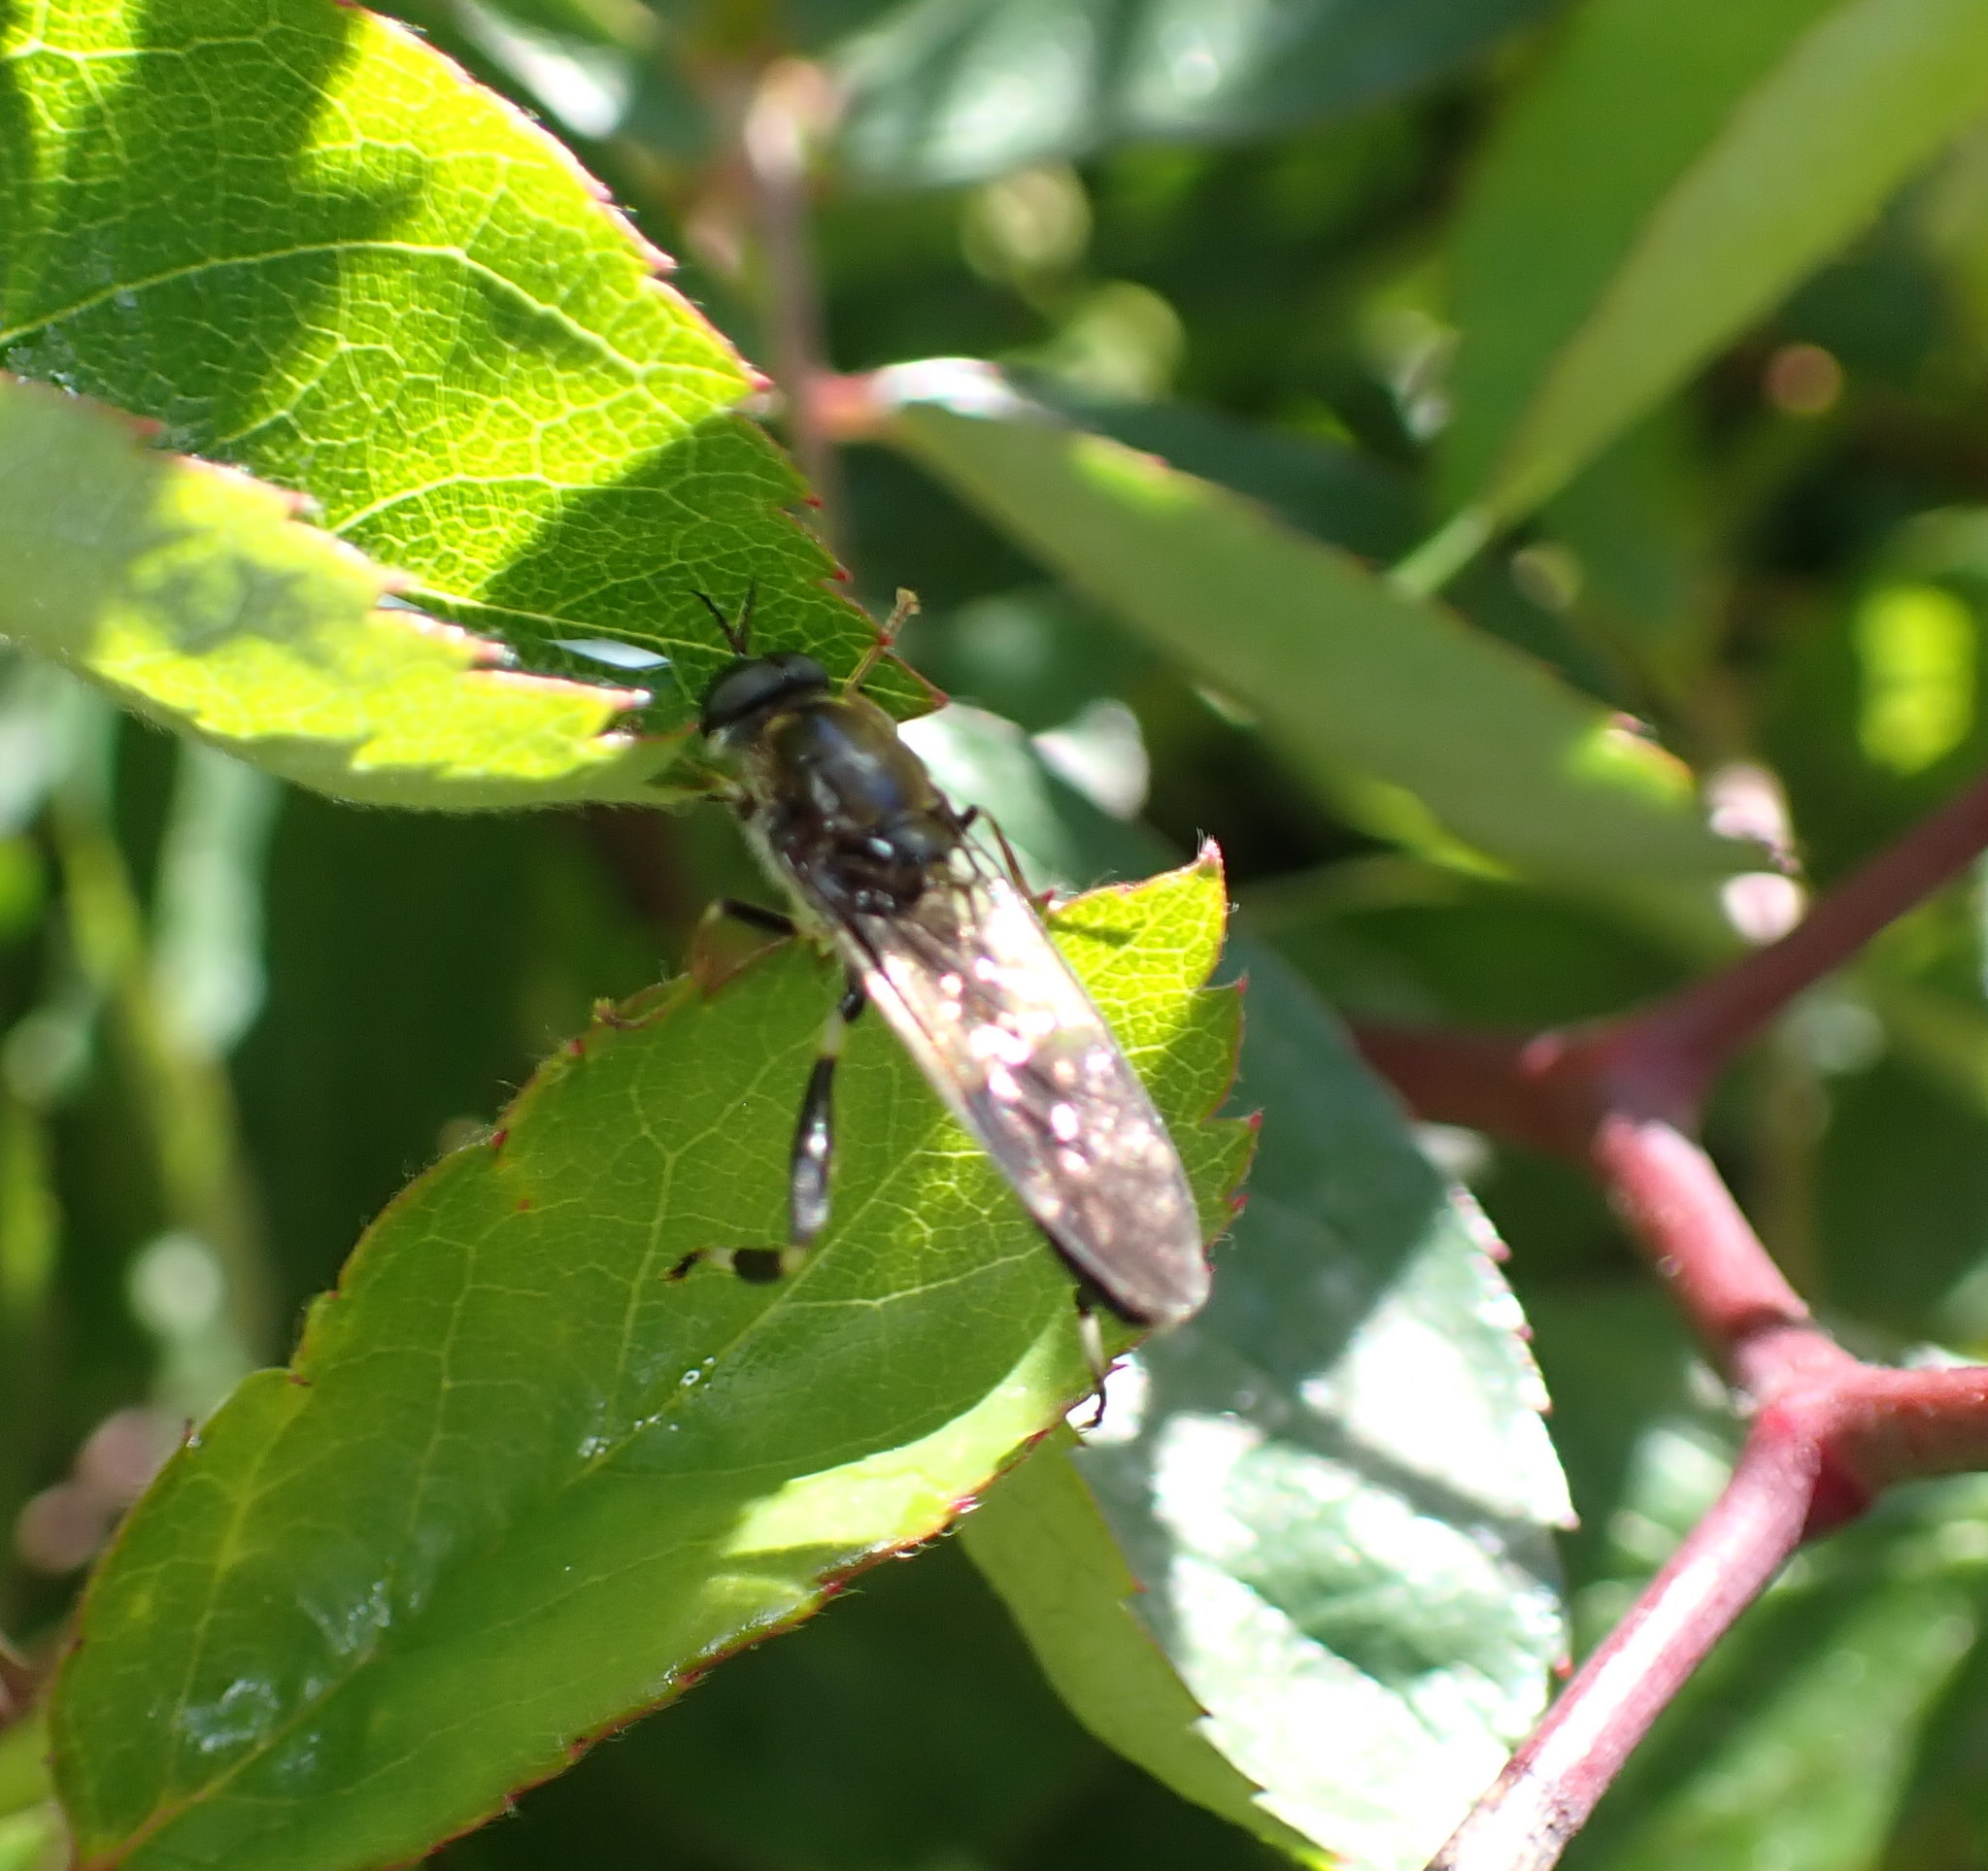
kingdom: Animalia
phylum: Arthropoda
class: Insecta
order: Diptera
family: Stratiomyidae
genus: Exaireta
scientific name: Exaireta spinigera
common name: Blue soldier fly
